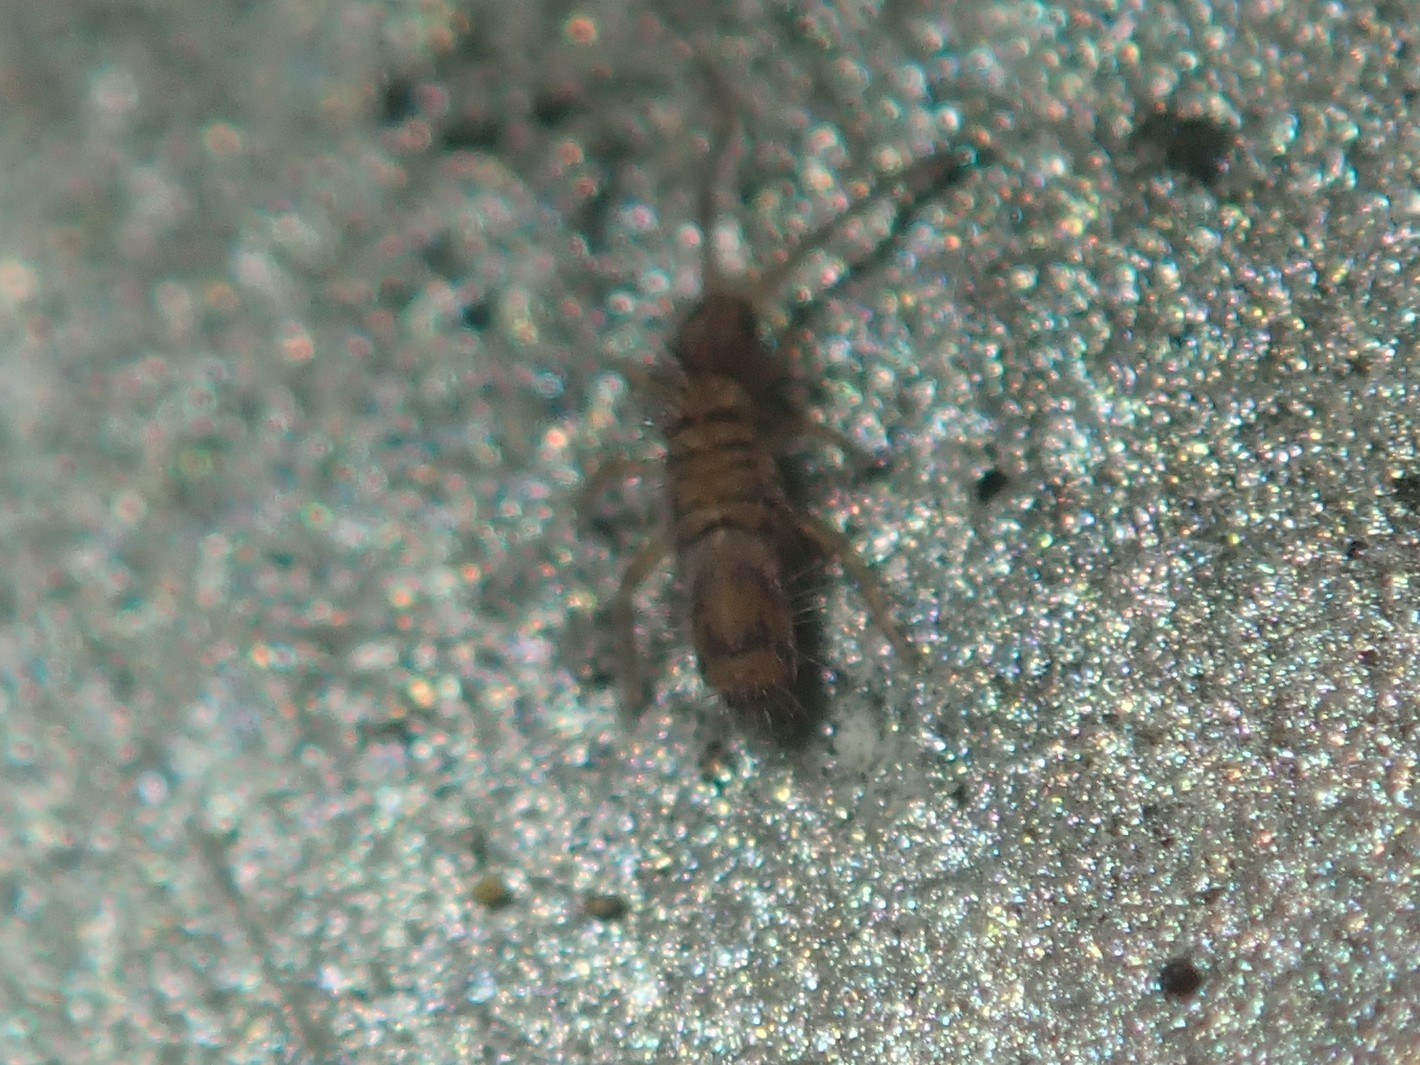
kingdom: Animalia
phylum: Arthropoda
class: Collembola
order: Entomobryomorpha
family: Entomobryidae
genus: Entomobrya
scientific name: Entomobrya multifasciata
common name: Springtail
